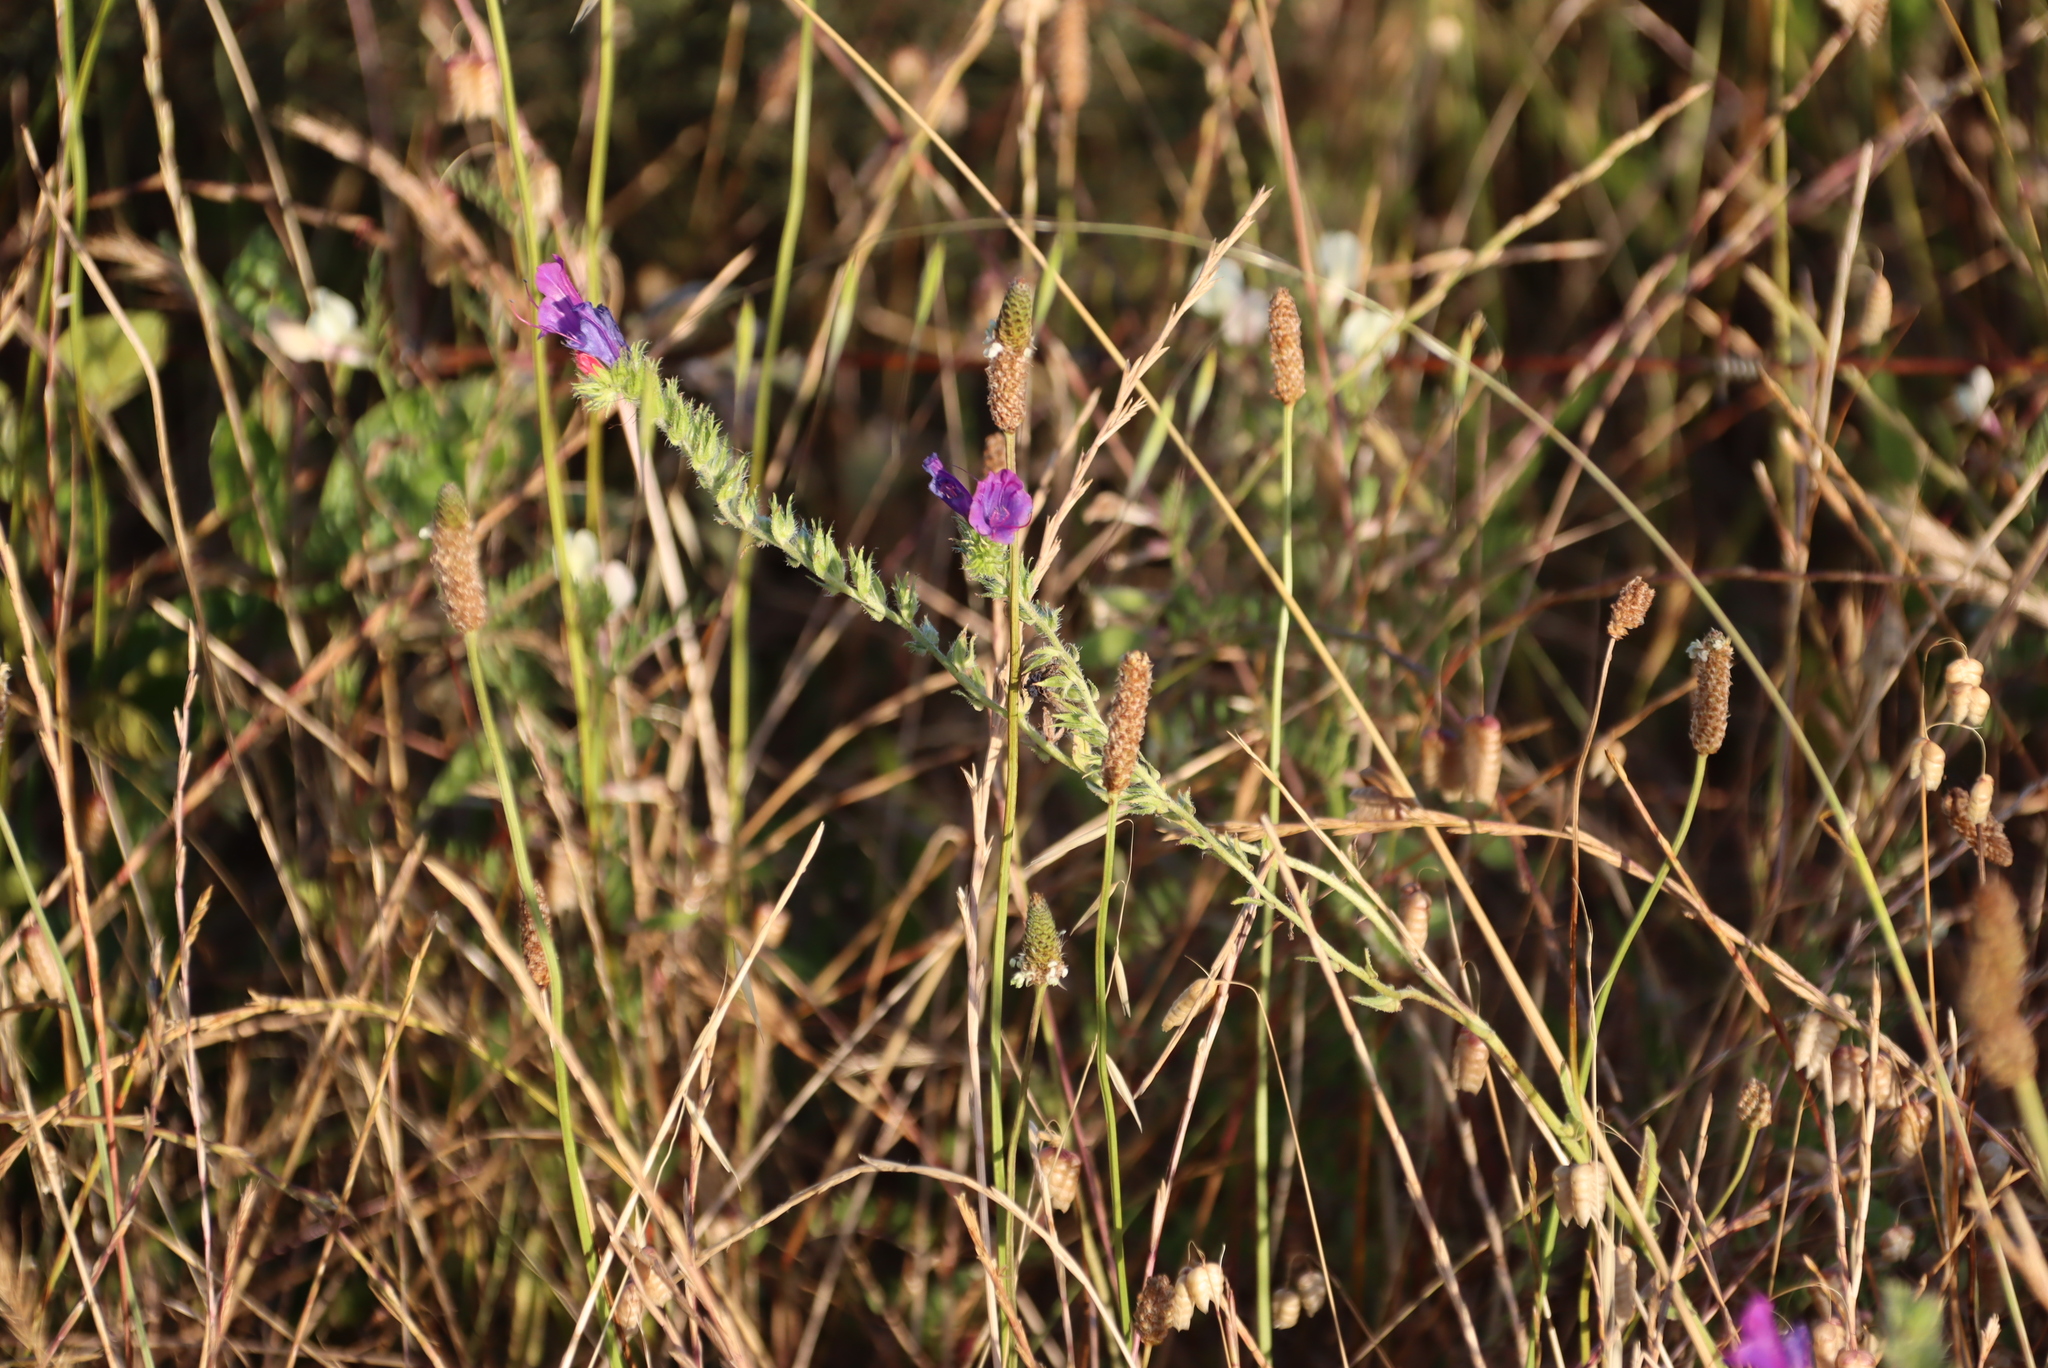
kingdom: Plantae
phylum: Tracheophyta
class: Magnoliopsida
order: Boraginales
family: Boraginaceae
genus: Echium
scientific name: Echium plantagineum
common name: Purple viper's-bugloss
